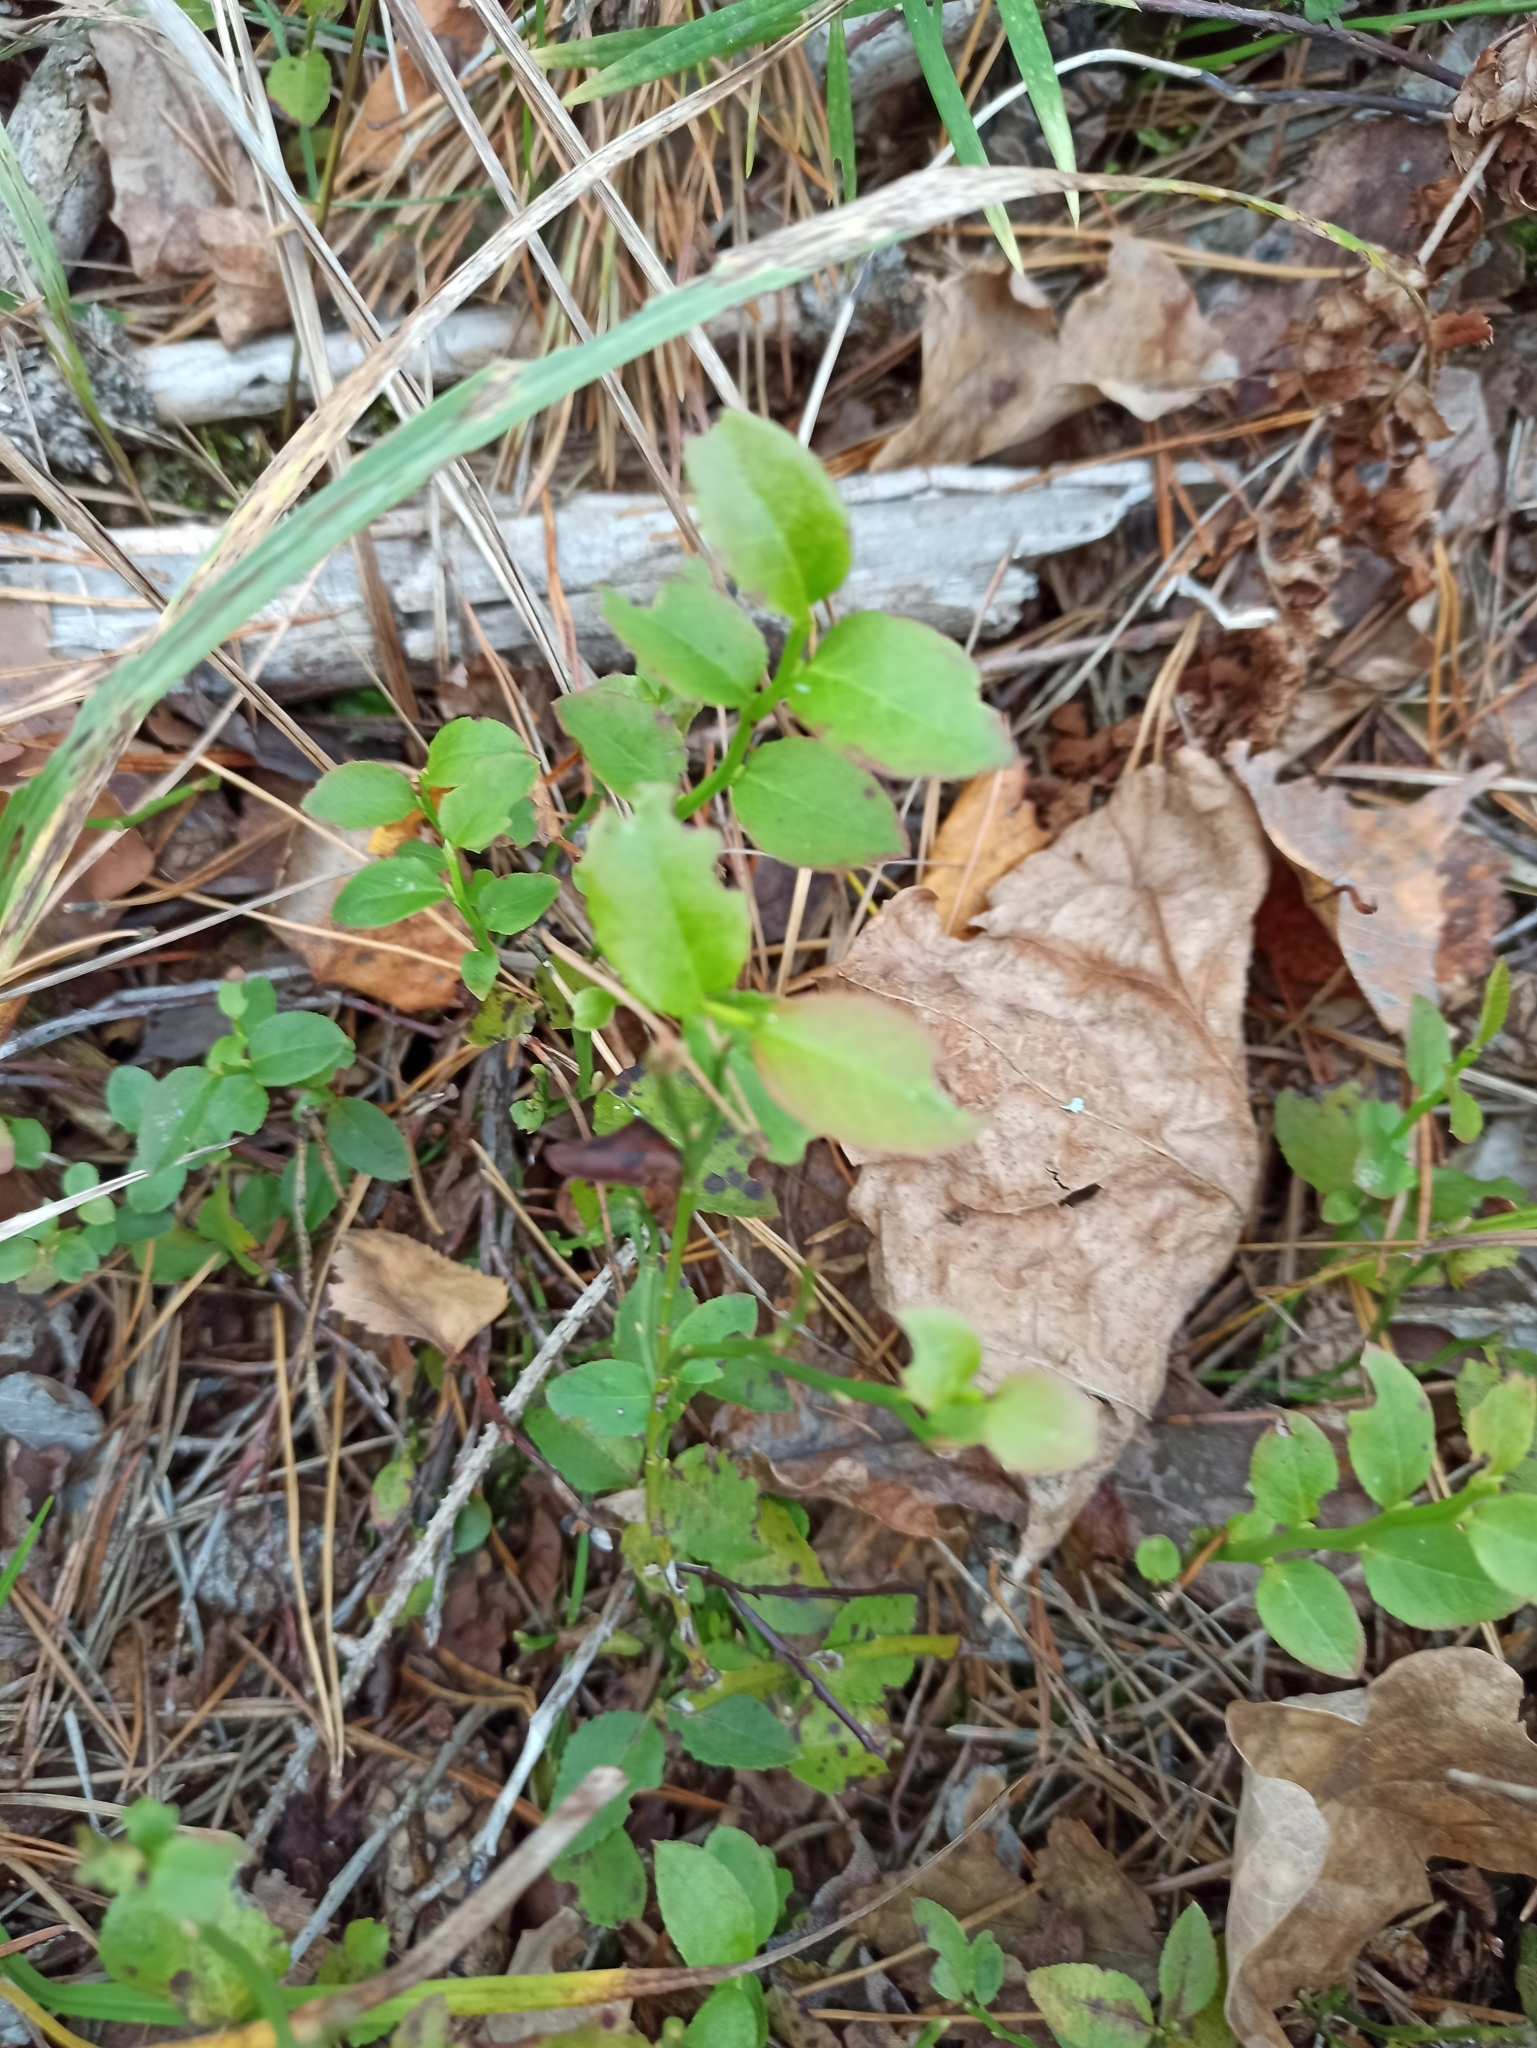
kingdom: Plantae
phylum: Tracheophyta
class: Magnoliopsida
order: Ericales
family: Ericaceae
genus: Vaccinium
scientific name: Vaccinium myrtillus
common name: Bilberry
